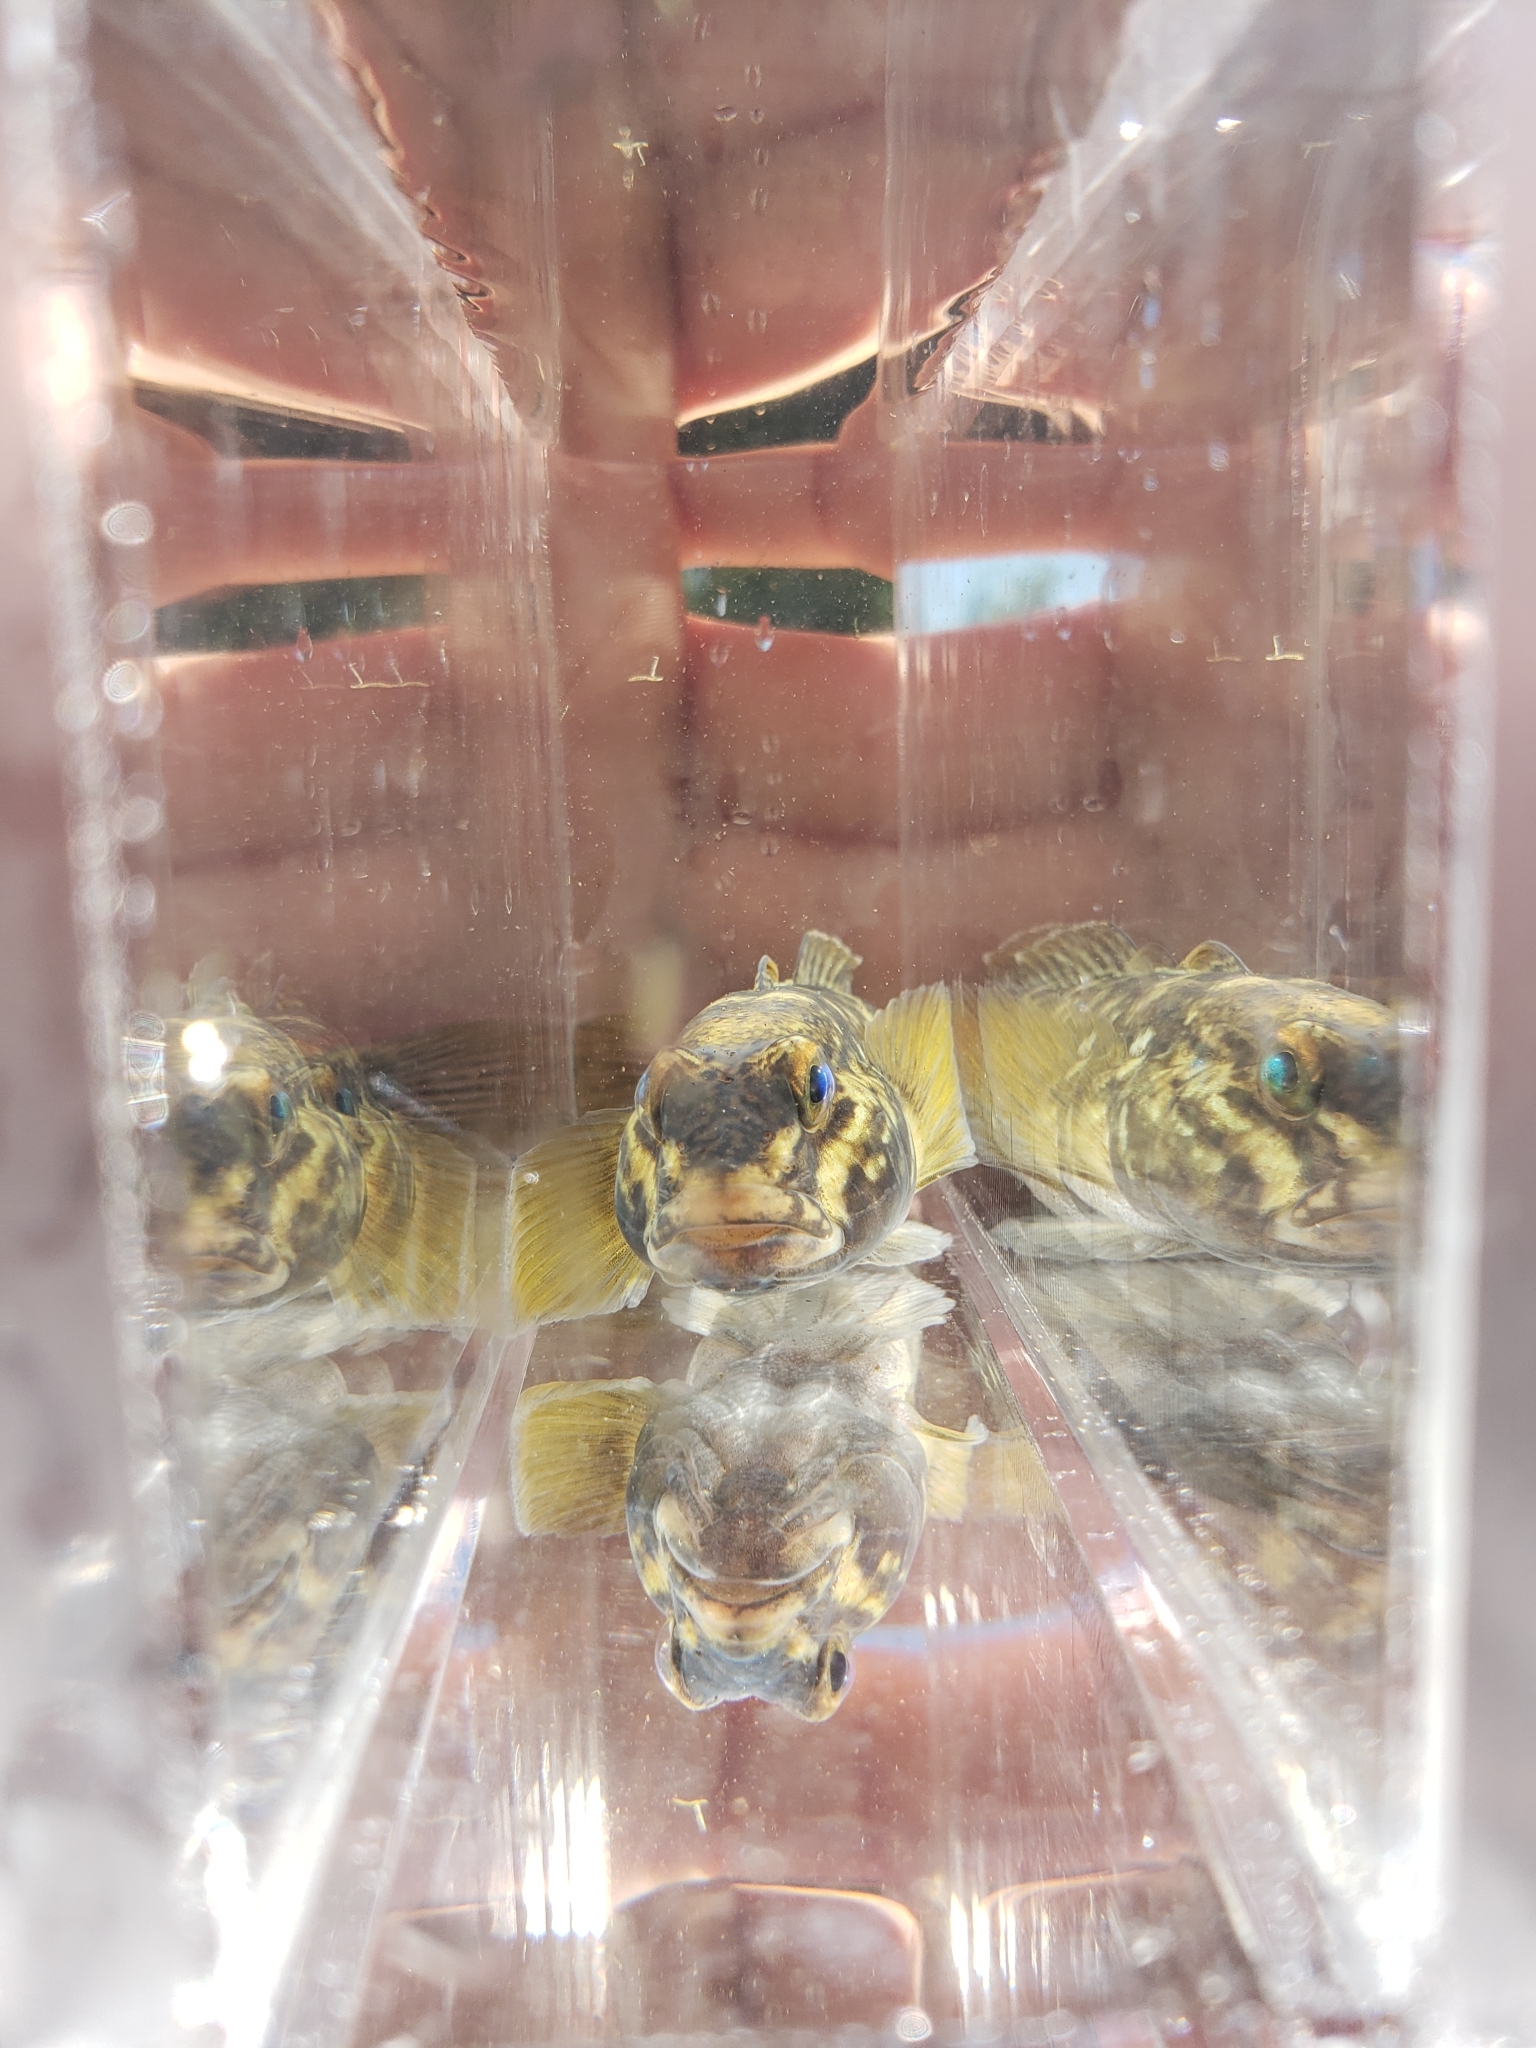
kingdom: Animalia
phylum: Chordata
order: Perciformes
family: Gobiidae
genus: Neogobius
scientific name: Neogobius melanostomus
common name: Round goby
